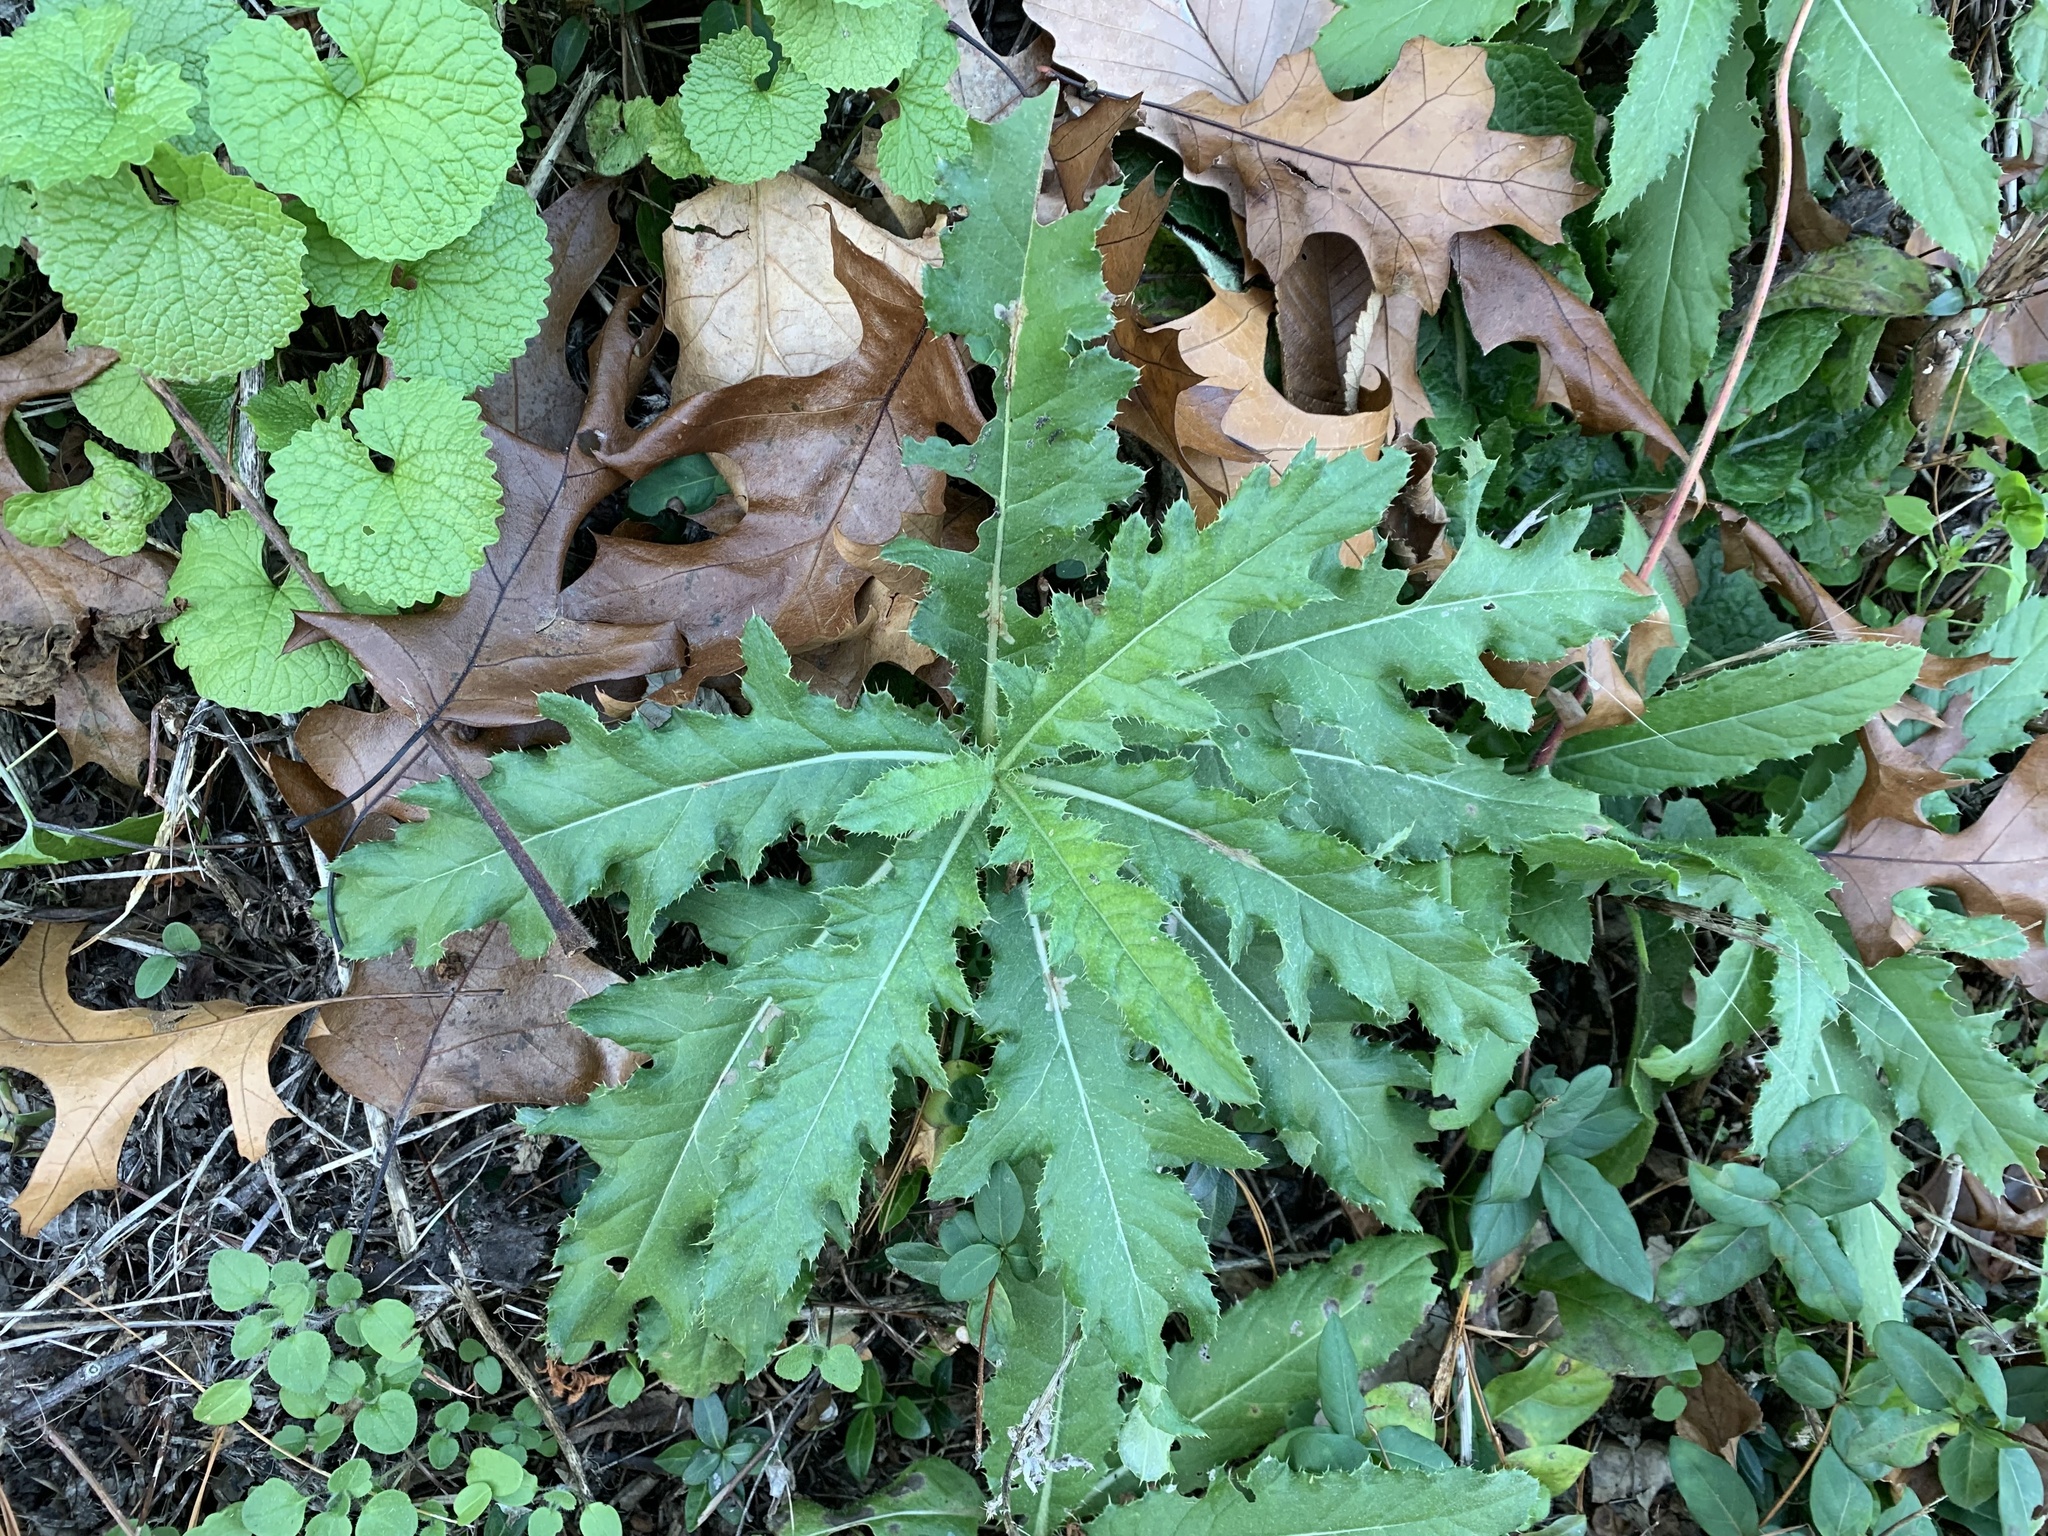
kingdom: Animalia
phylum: Arthropoda
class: Insecta
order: Lepidoptera
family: Gelechiidae
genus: Scrobipalpa
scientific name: Scrobipalpa acuminatella
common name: Pointed groundling
